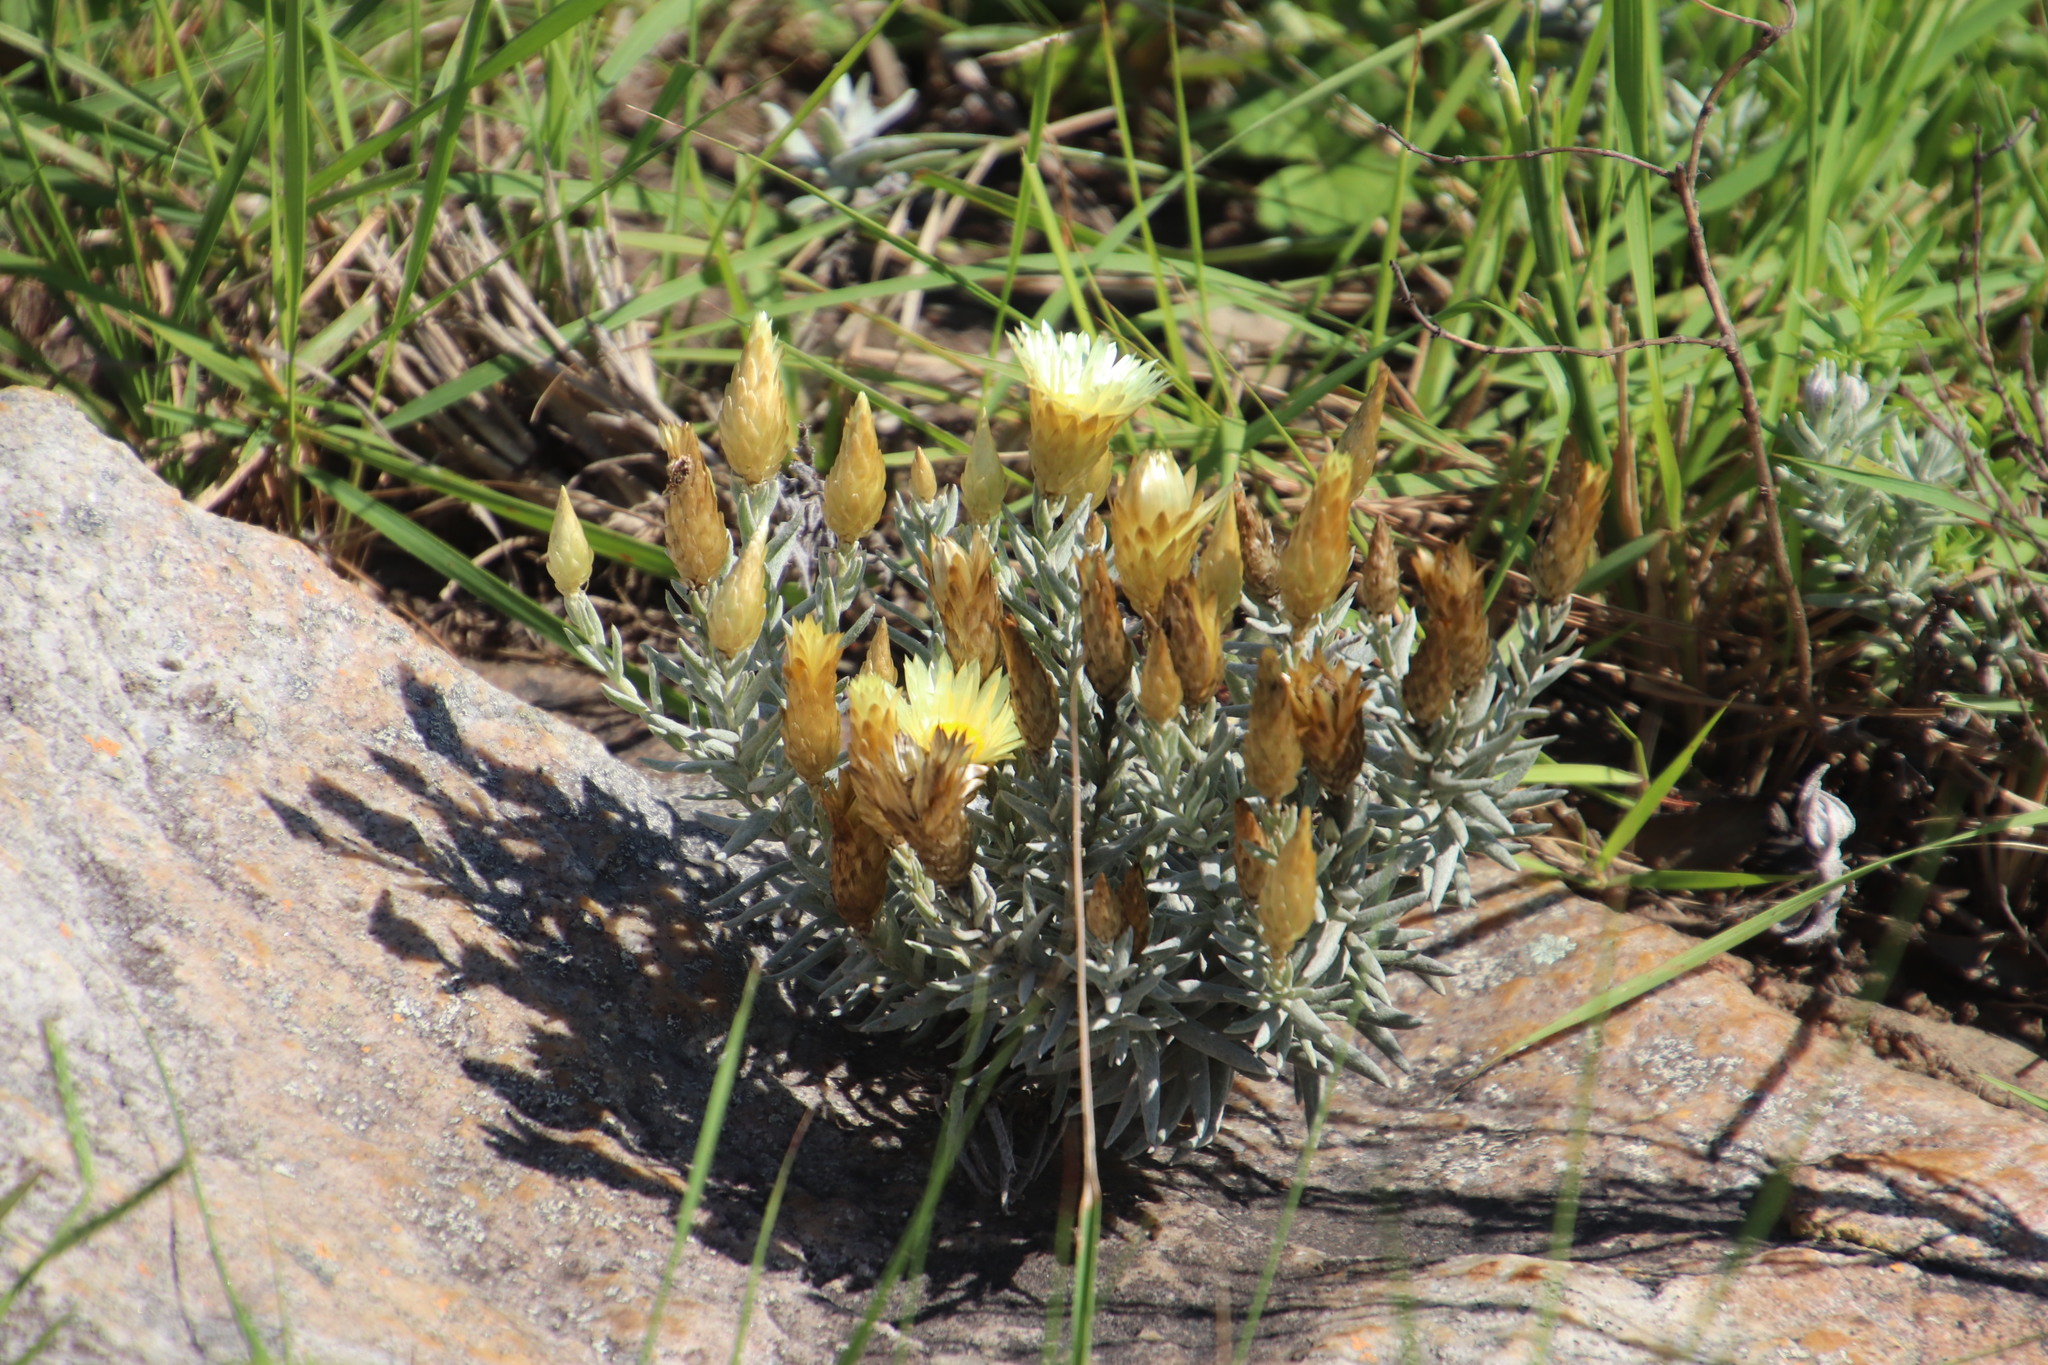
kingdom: Plantae
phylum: Tracheophyta
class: Magnoliopsida
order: Asterales
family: Asteraceae
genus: Helichrysum
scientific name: Helichrysum herbaceum
